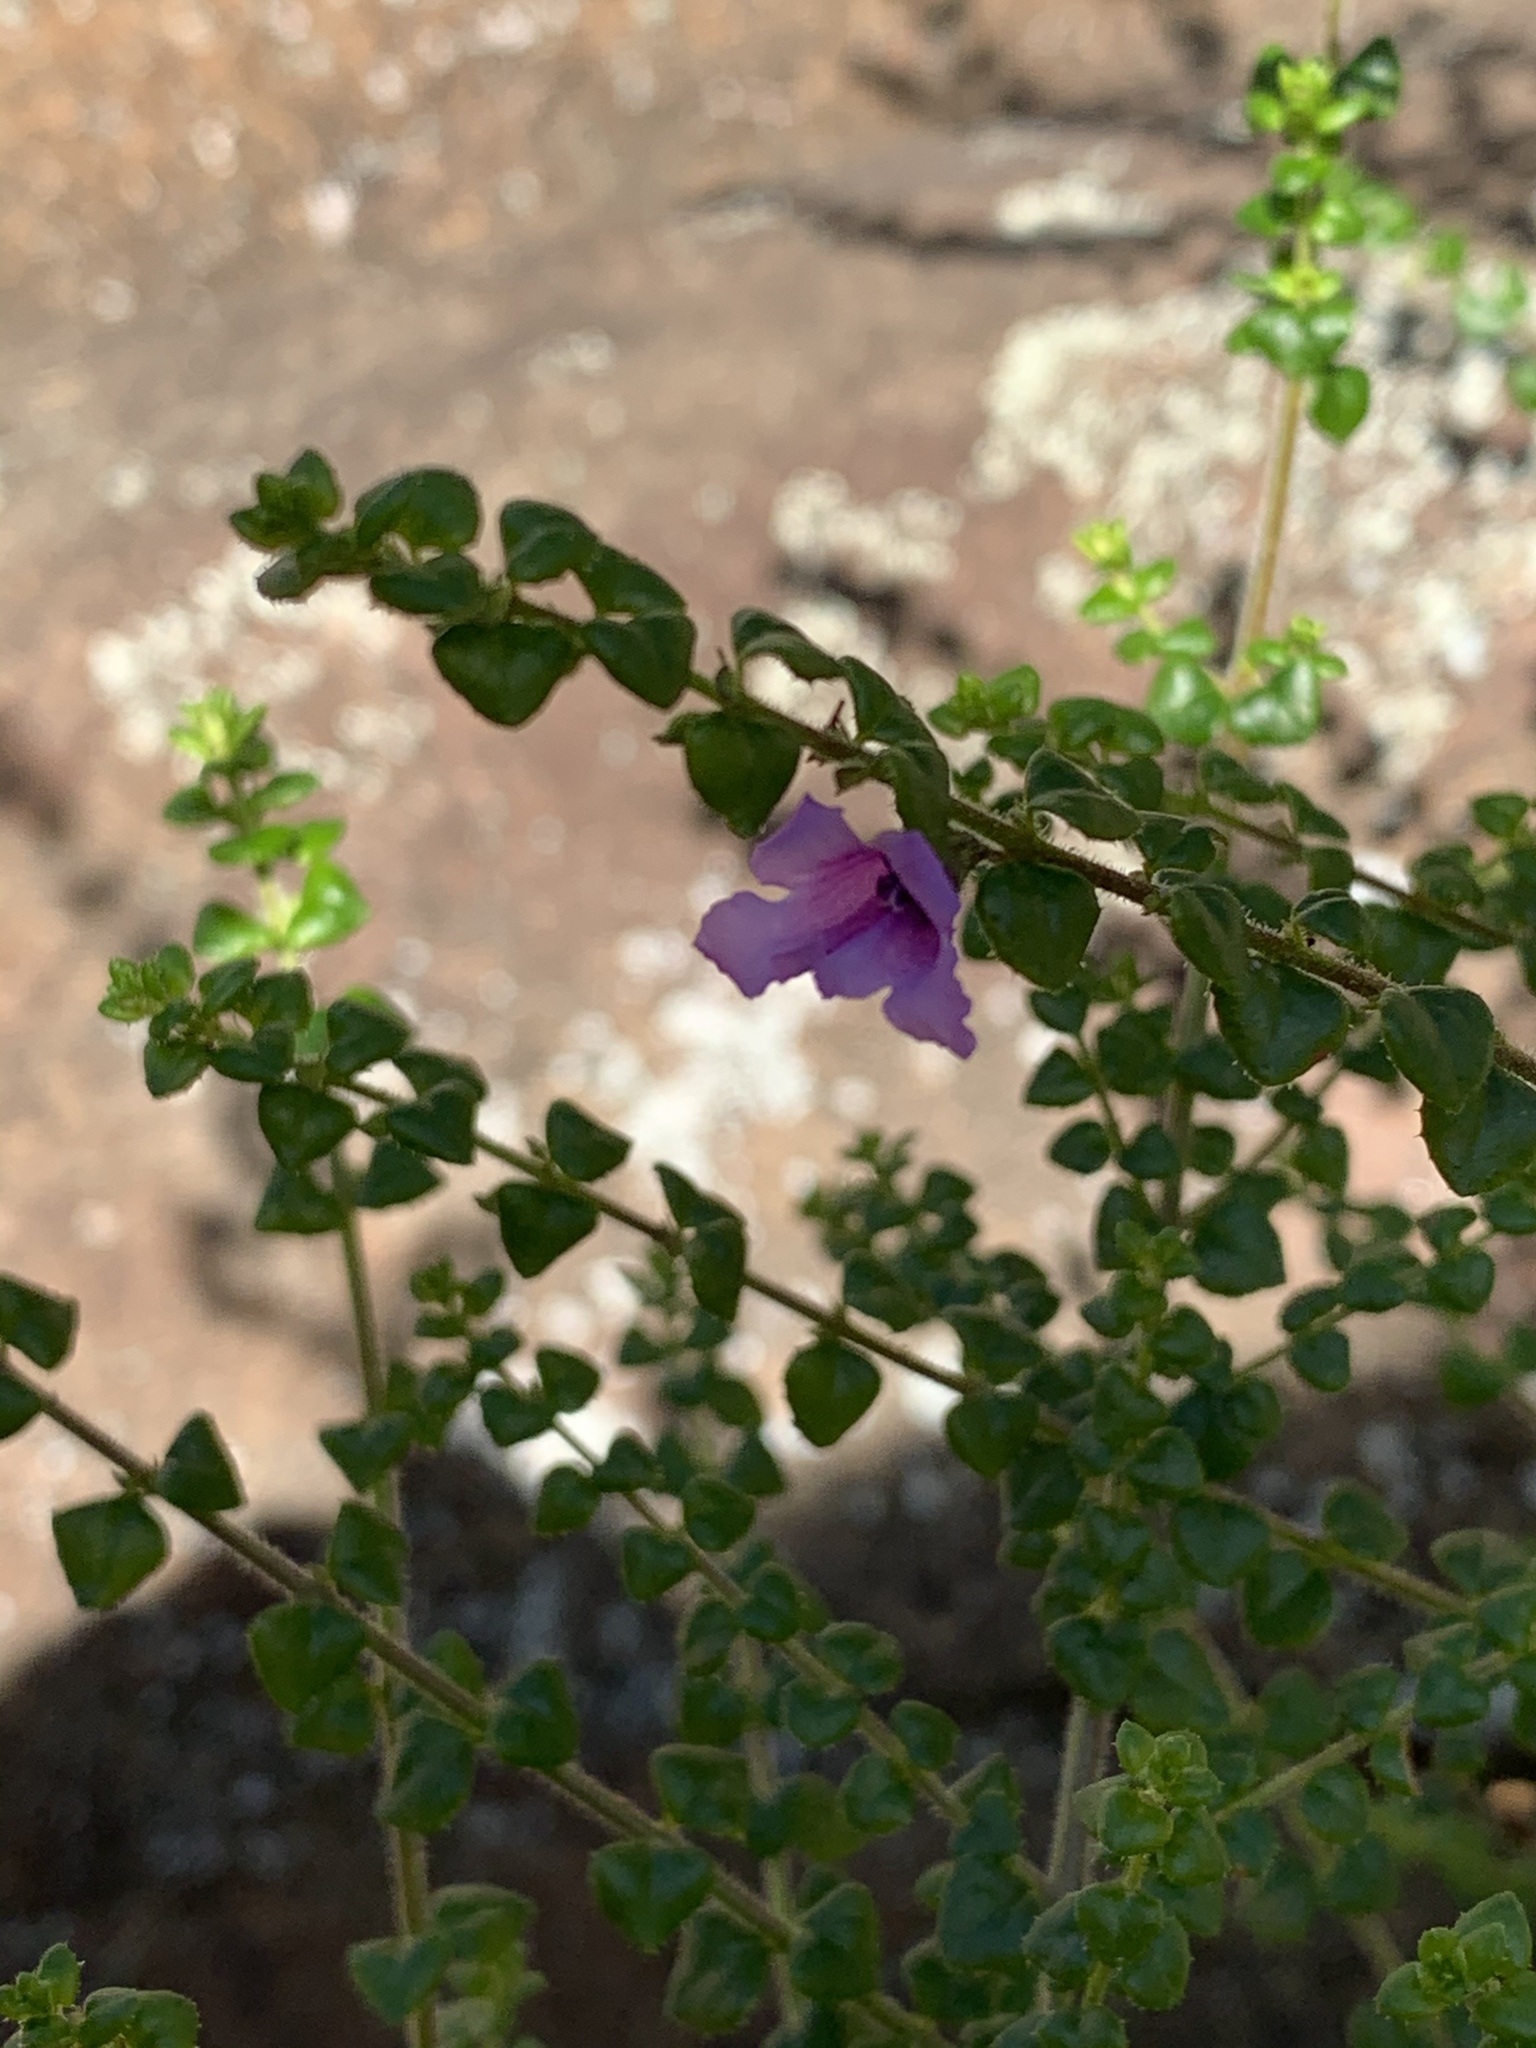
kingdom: Plantae
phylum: Tracheophyta
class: Magnoliopsida
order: Lamiales
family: Lamiaceae
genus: Prostanthera
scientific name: Prostanthera rhombea
